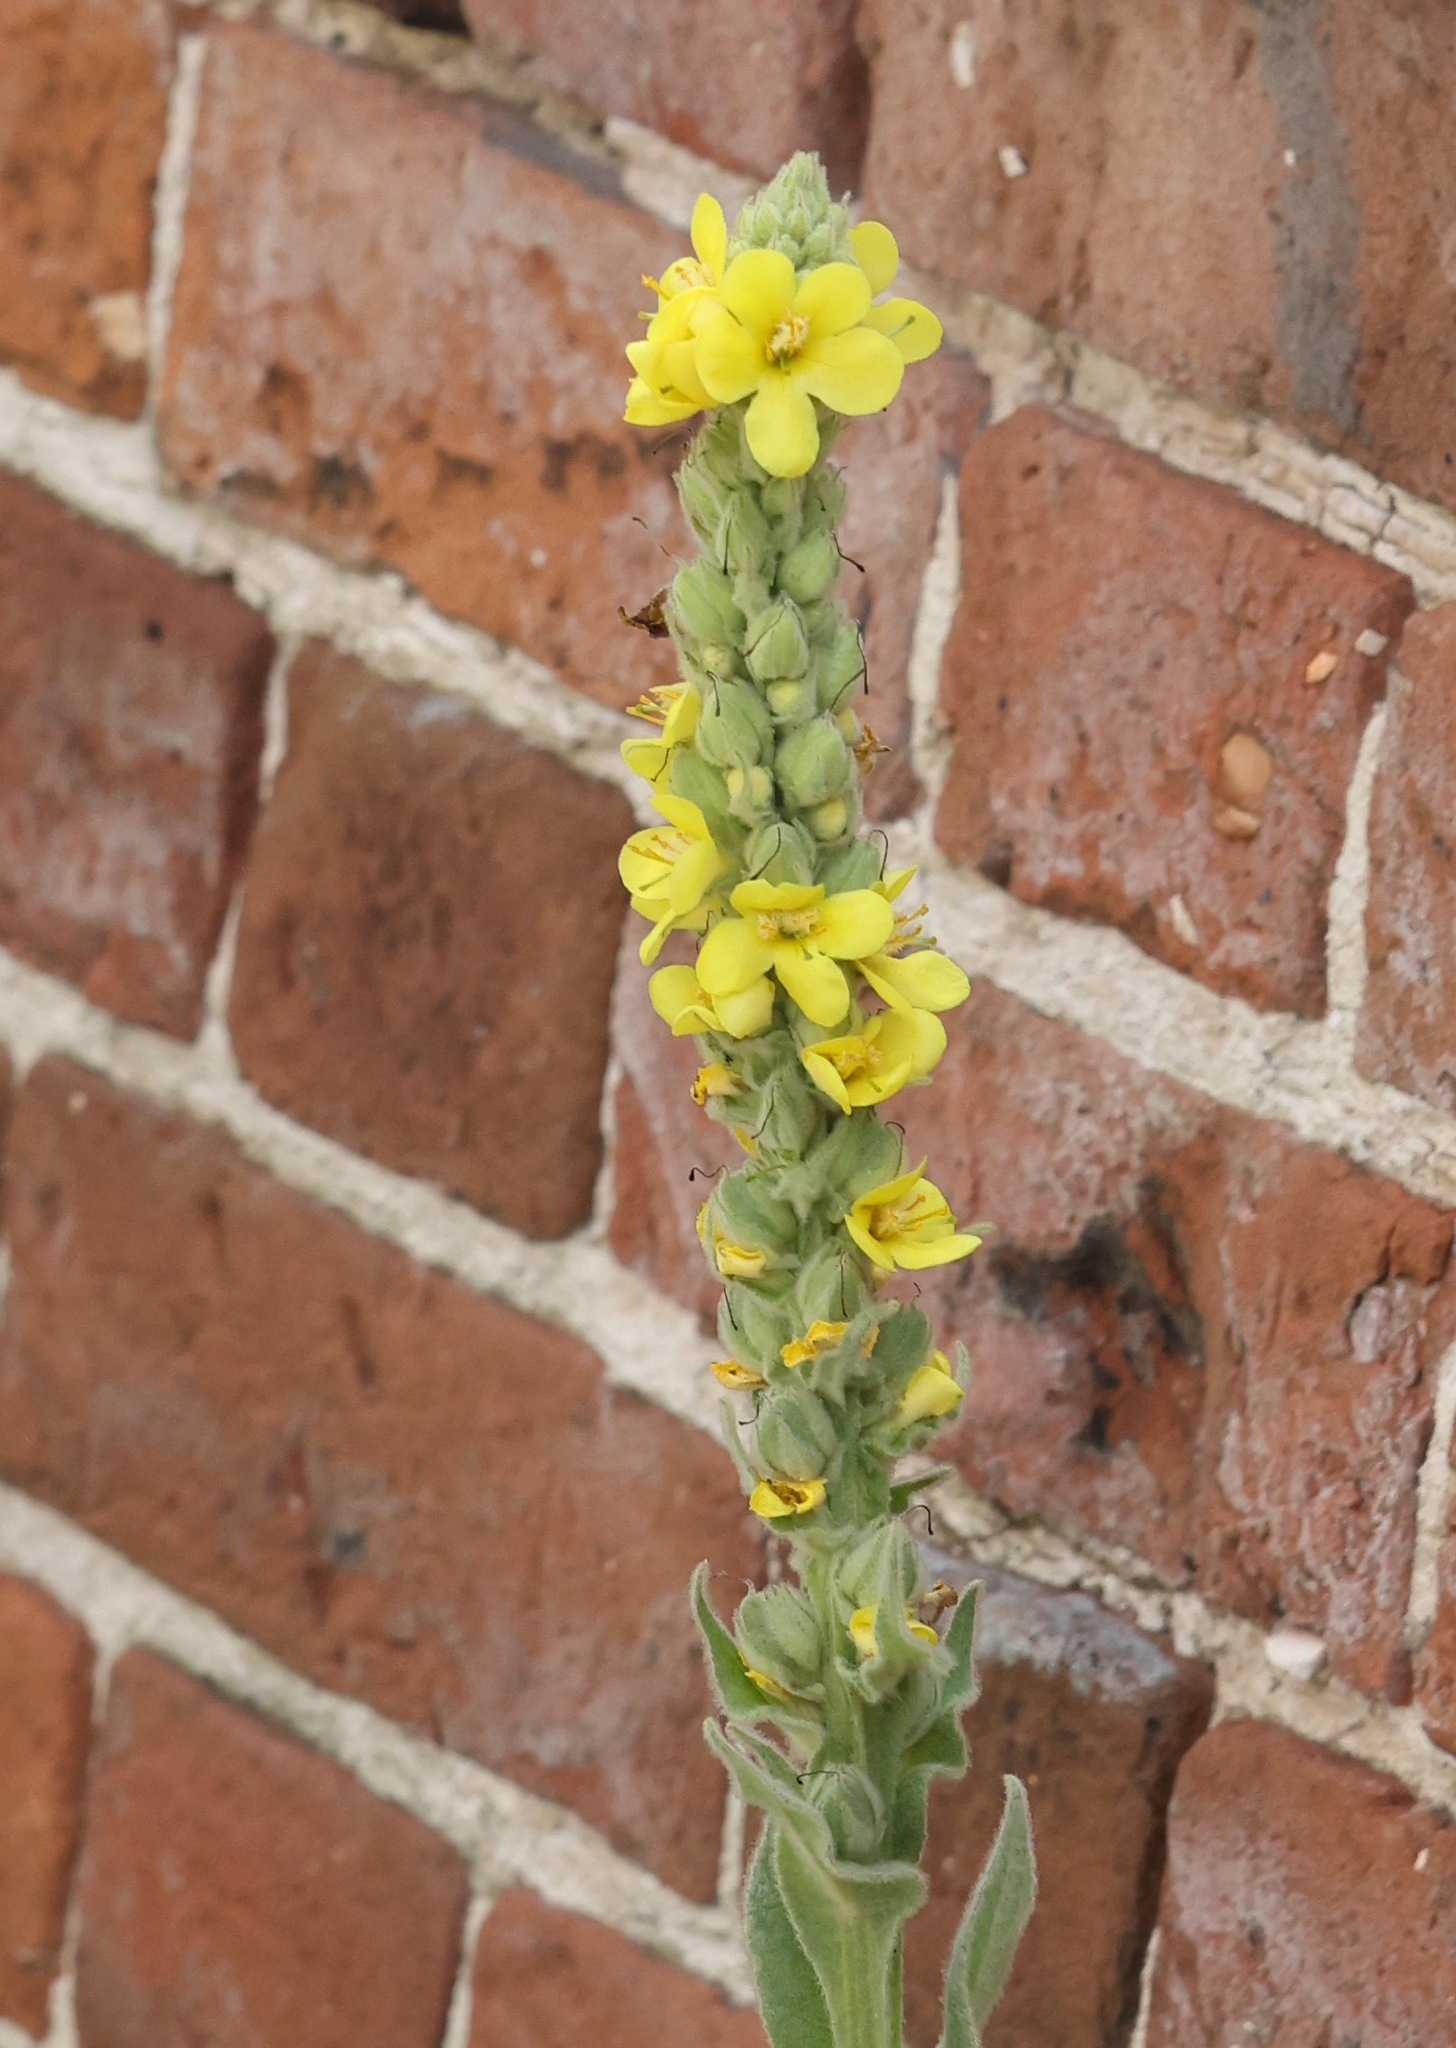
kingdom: Plantae
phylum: Tracheophyta
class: Magnoliopsida
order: Lamiales
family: Scrophulariaceae
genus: Verbascum
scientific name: Verbascum thapsus
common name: Common mullein
